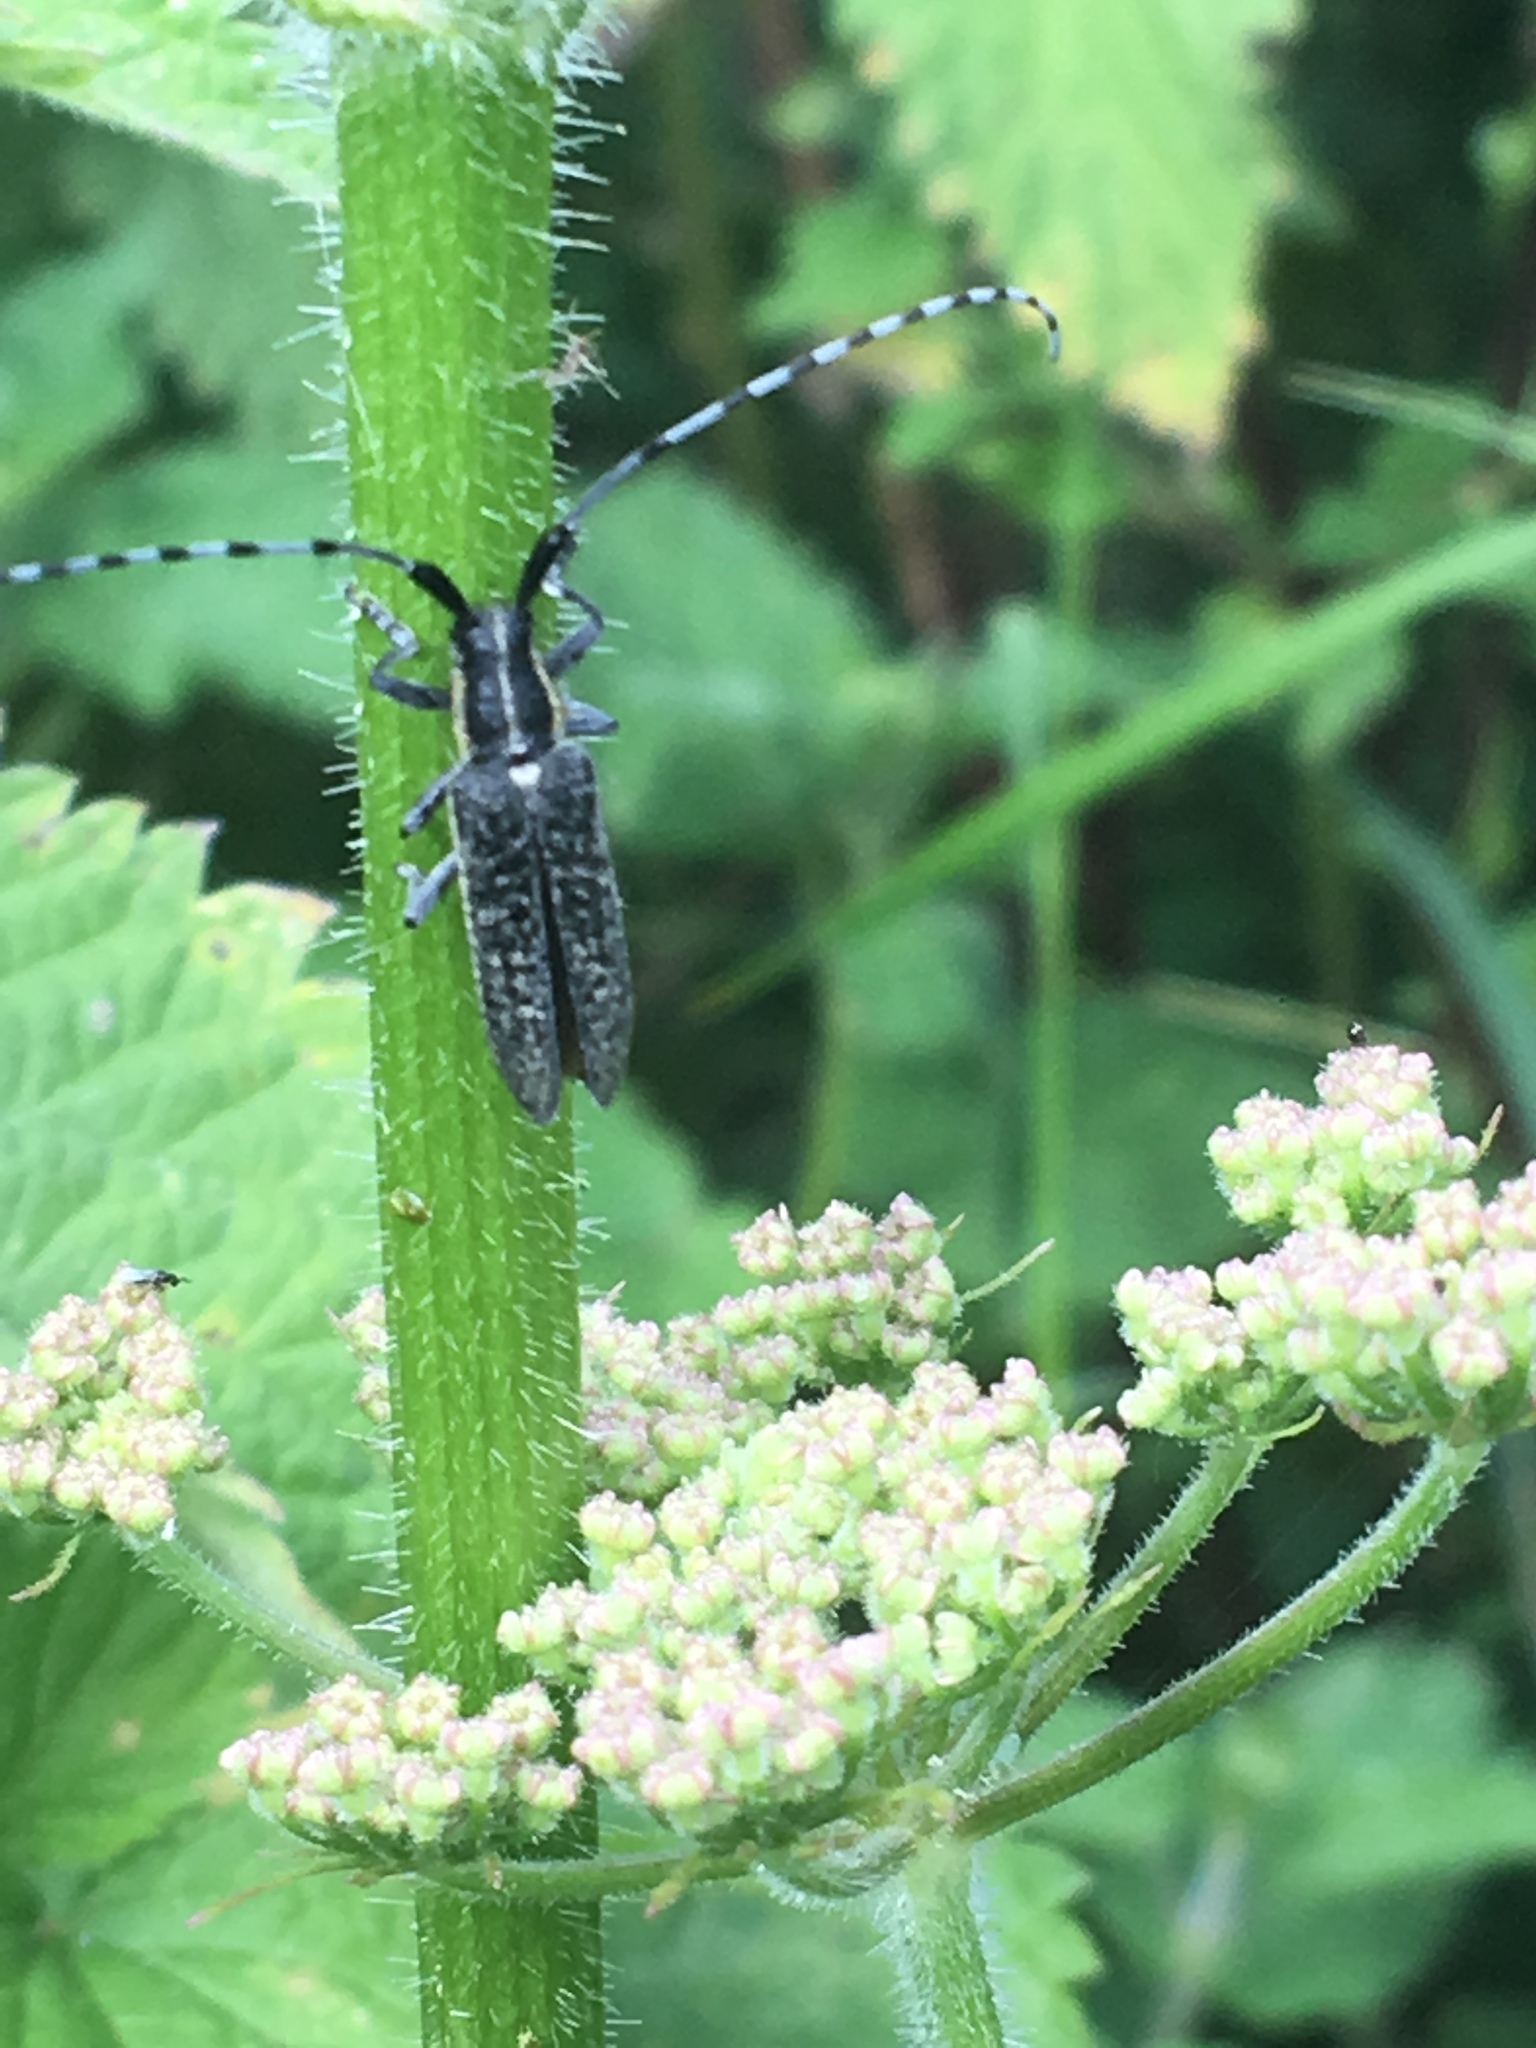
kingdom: Animalia
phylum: Arthropoda
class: Insecta
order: Coleoptera
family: Cerambycidae
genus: Agapanthia
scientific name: Agapanthia villosoviridescens
